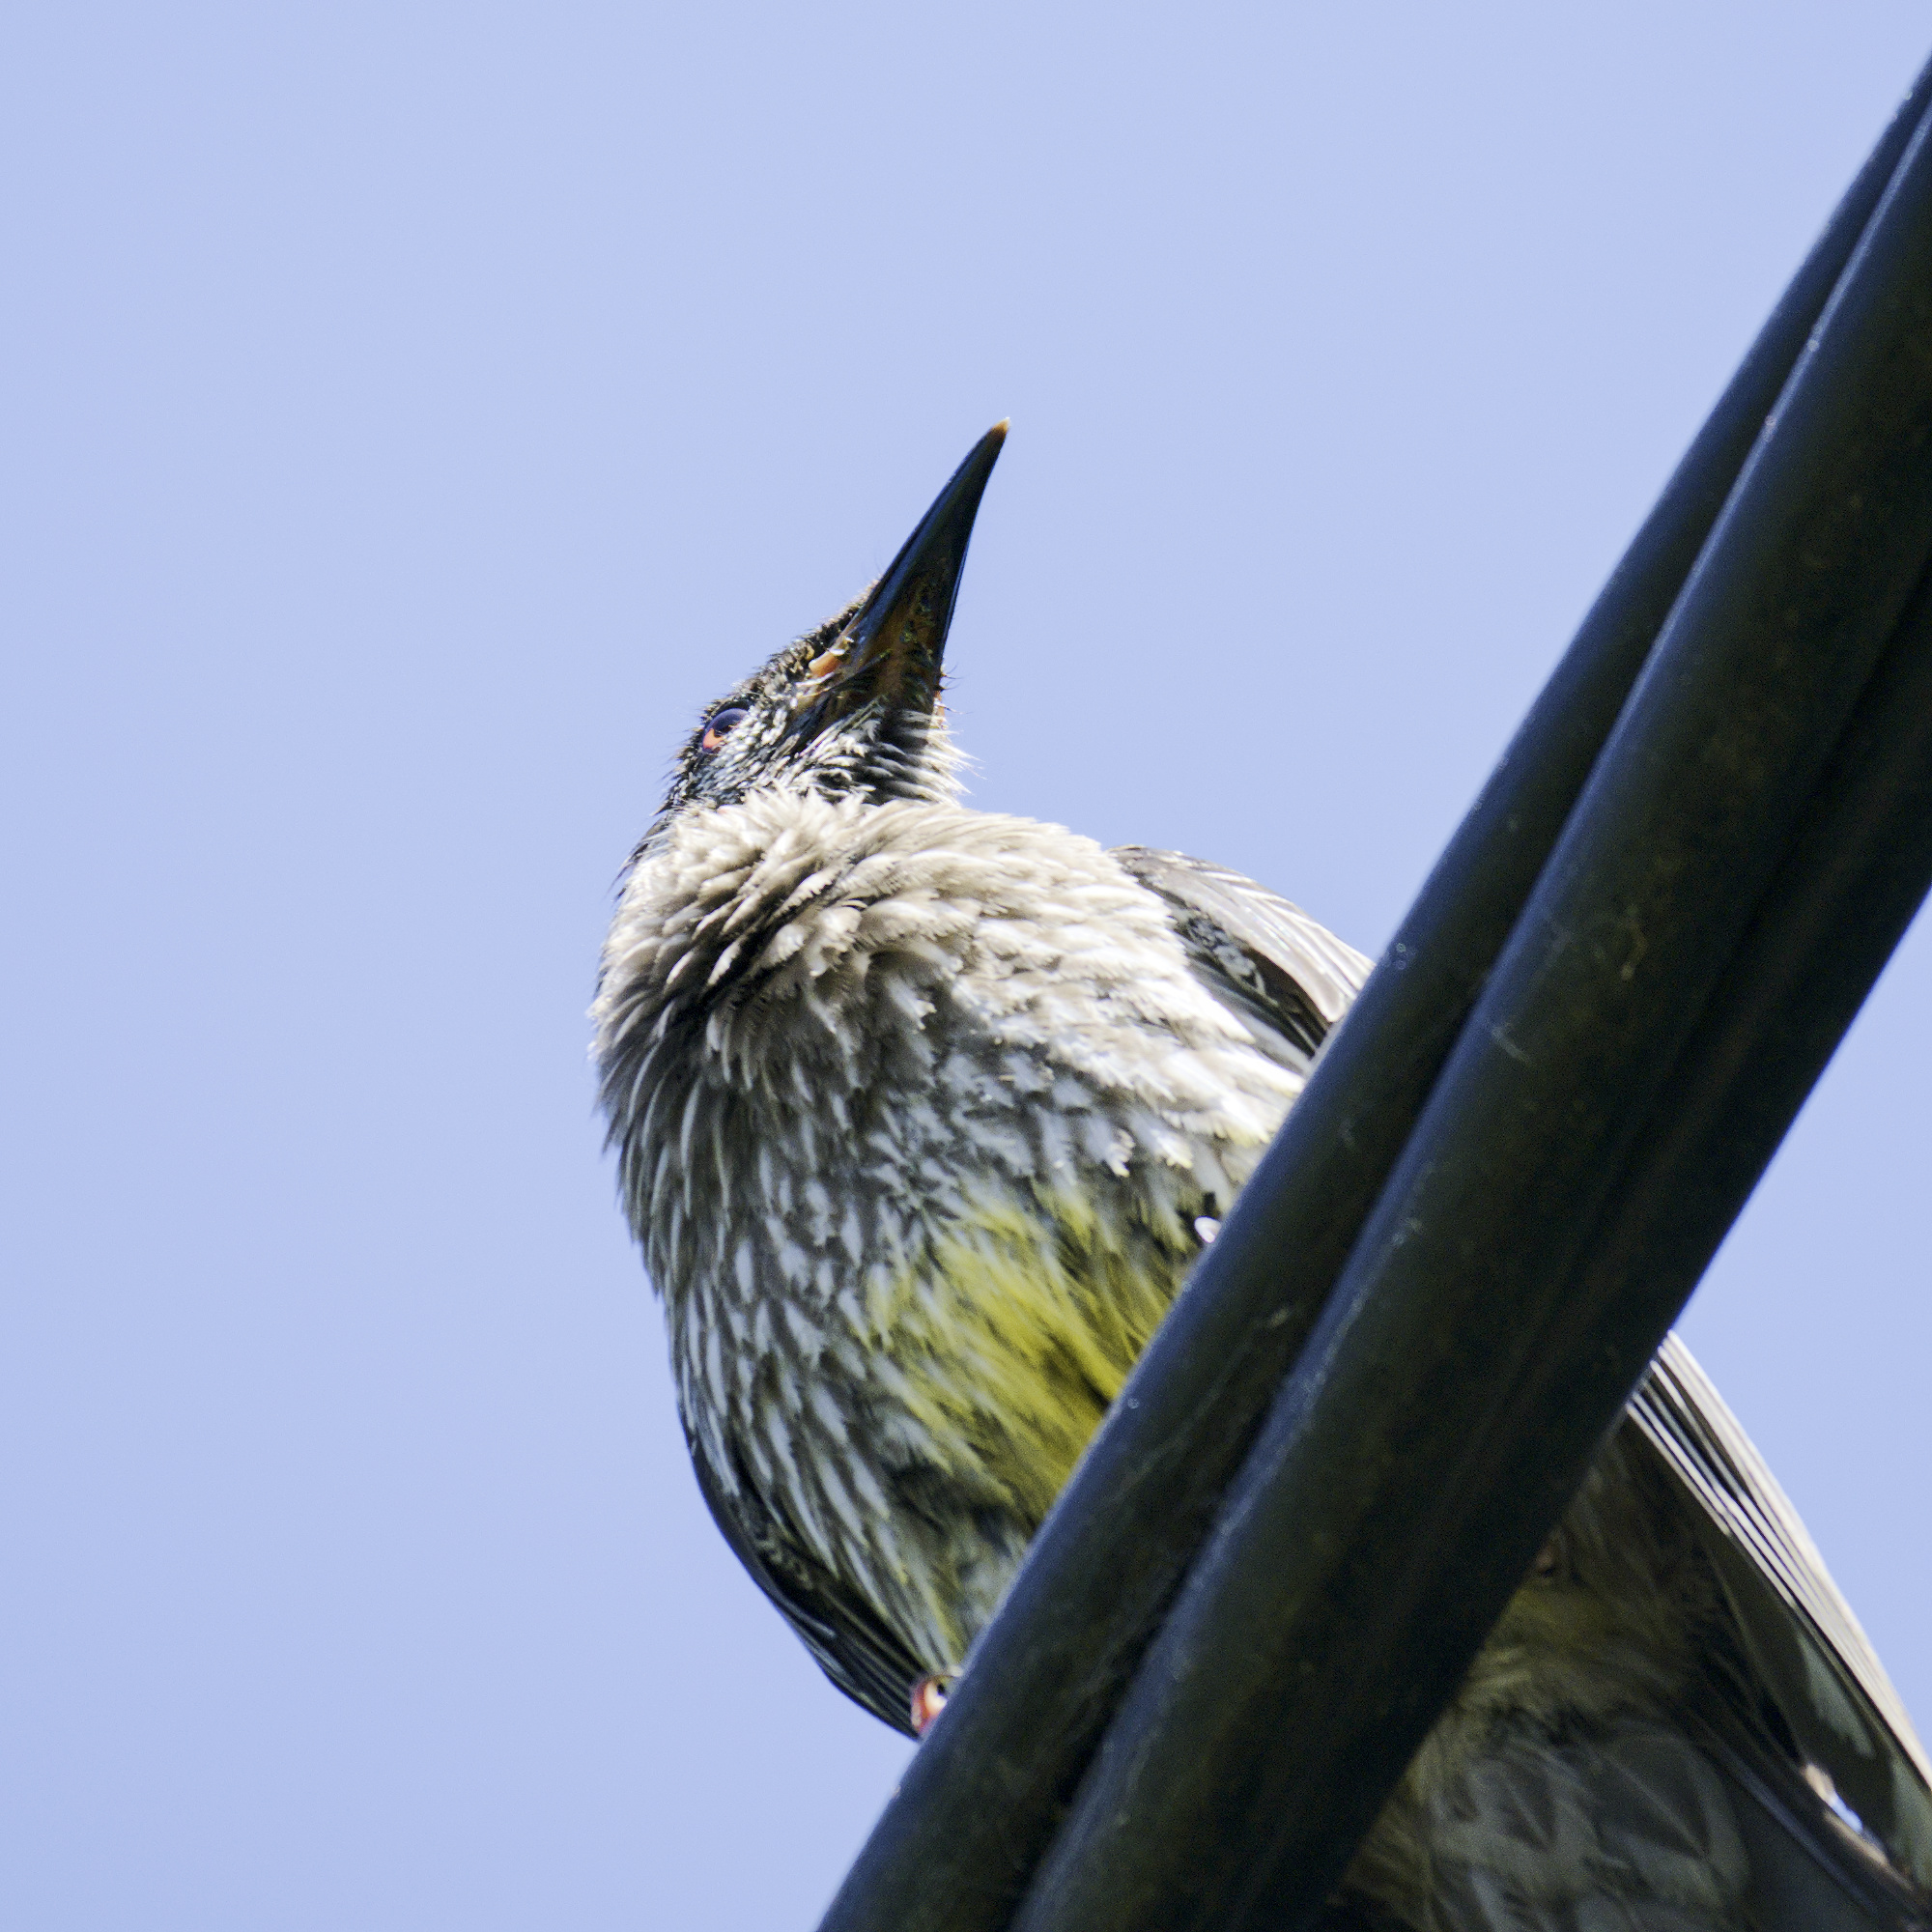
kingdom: Animalia
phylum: Chordata
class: Aves
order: Passeriformes
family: Meliphagidae
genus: Anthochaera
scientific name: Anthochaera carunculata
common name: Red wattlebird
